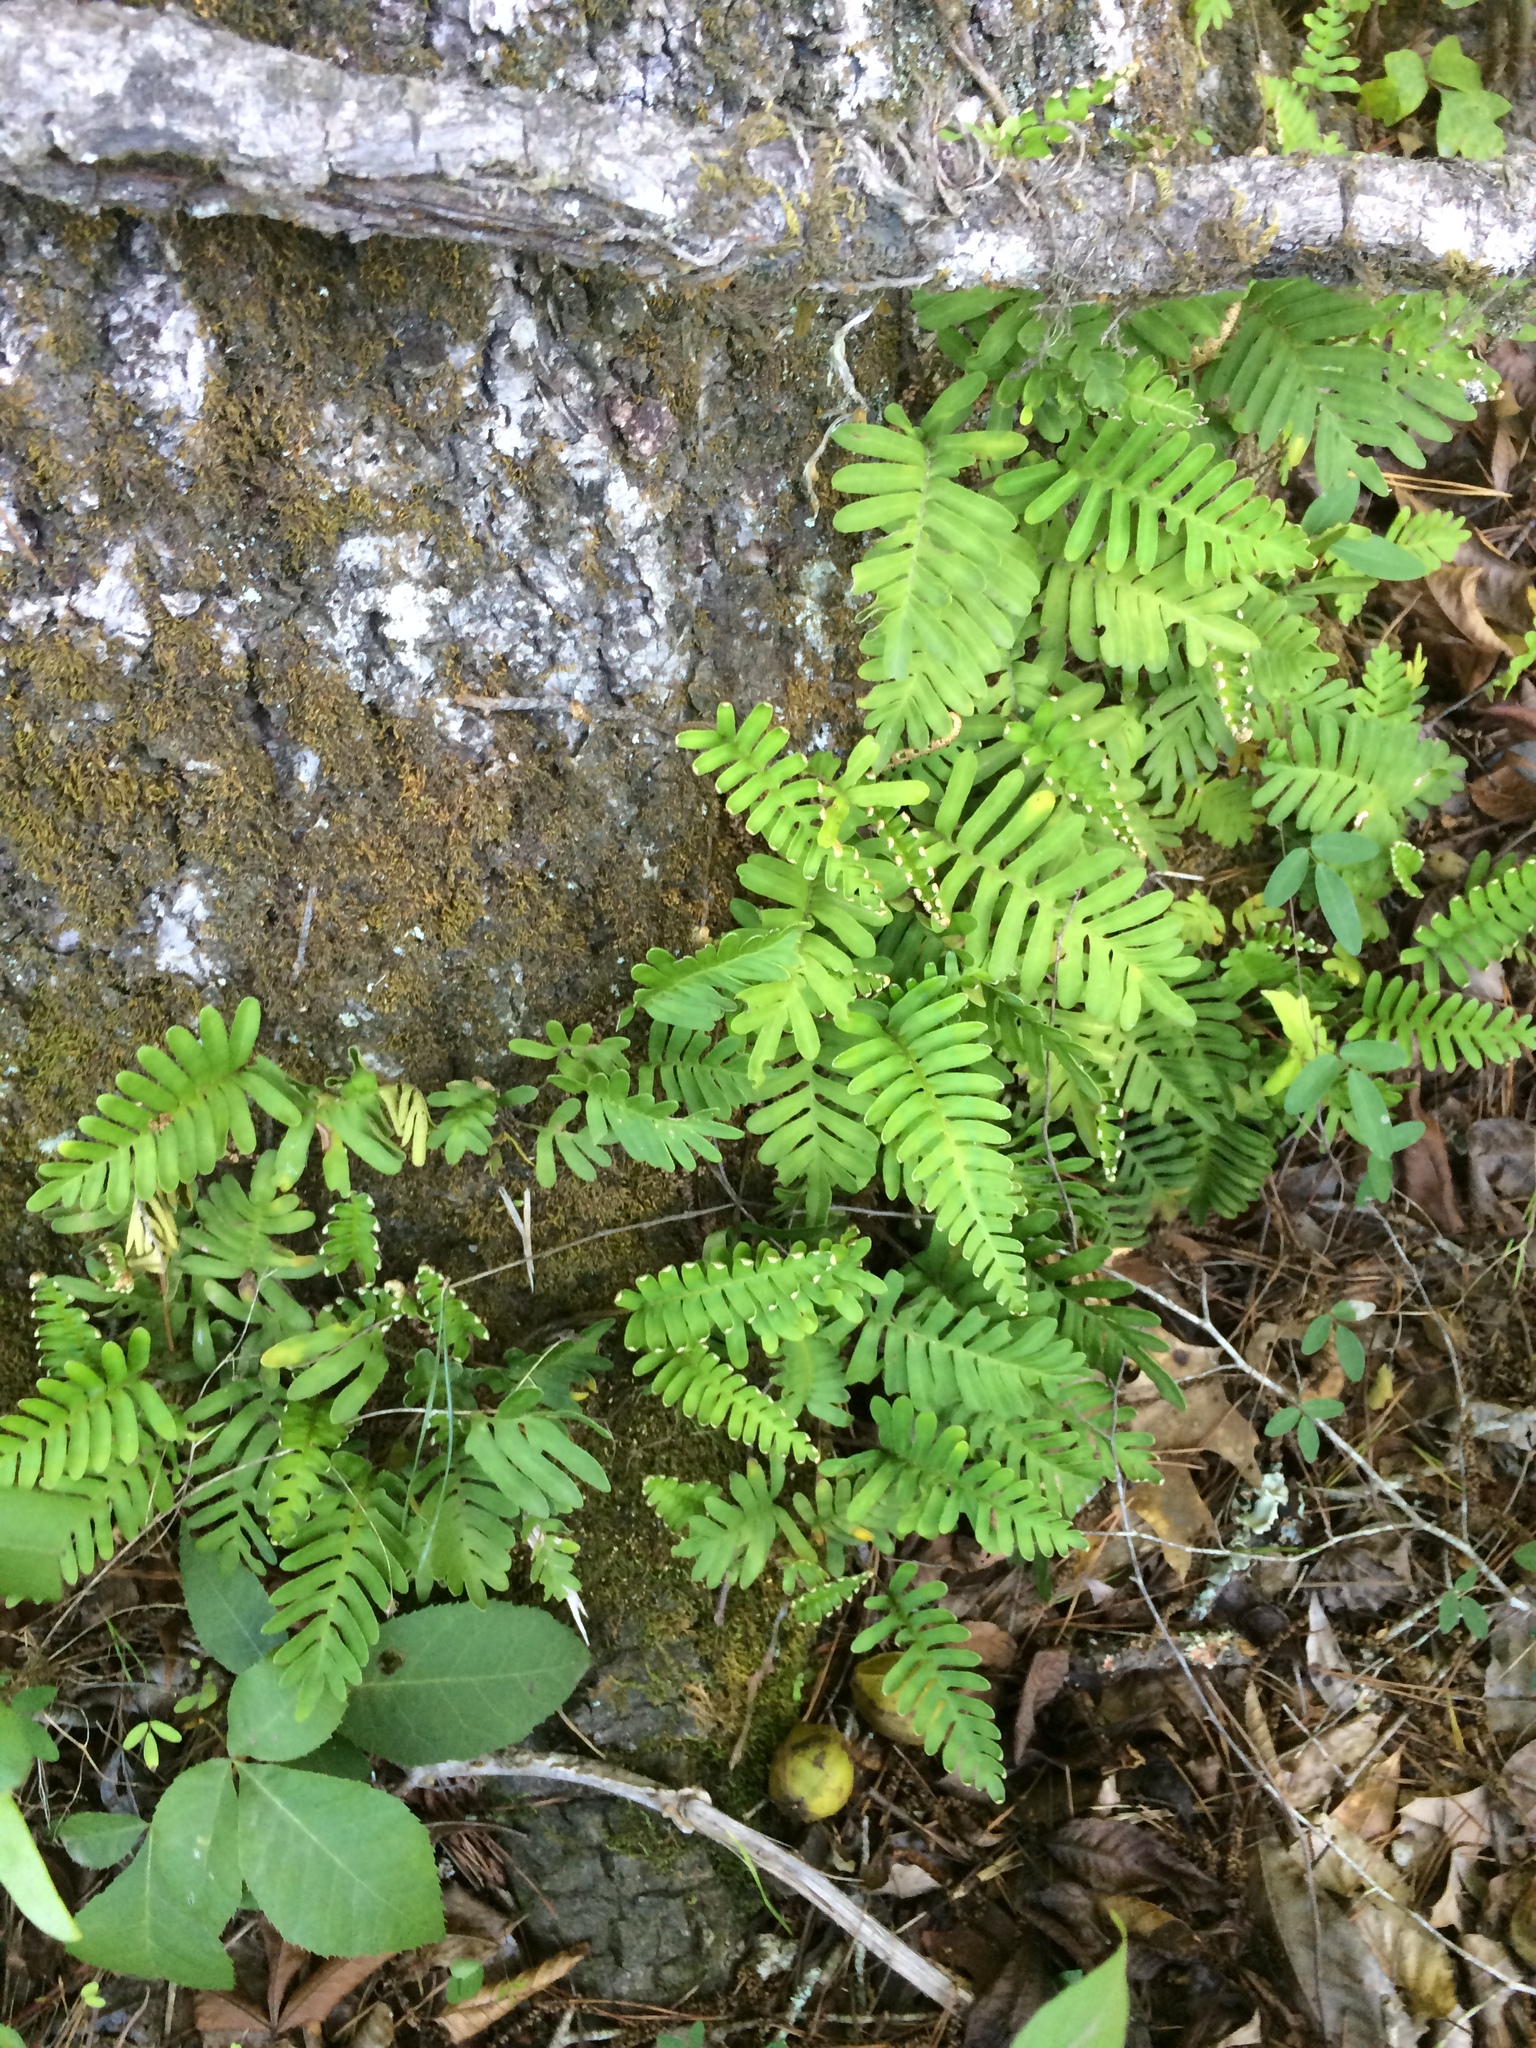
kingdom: Plantae
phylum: Tracheophyta
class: Polypodiopsida
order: Polypodiales
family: Polypodiaceae
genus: Pleopeltis
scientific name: Pleopeltis michauxiana
